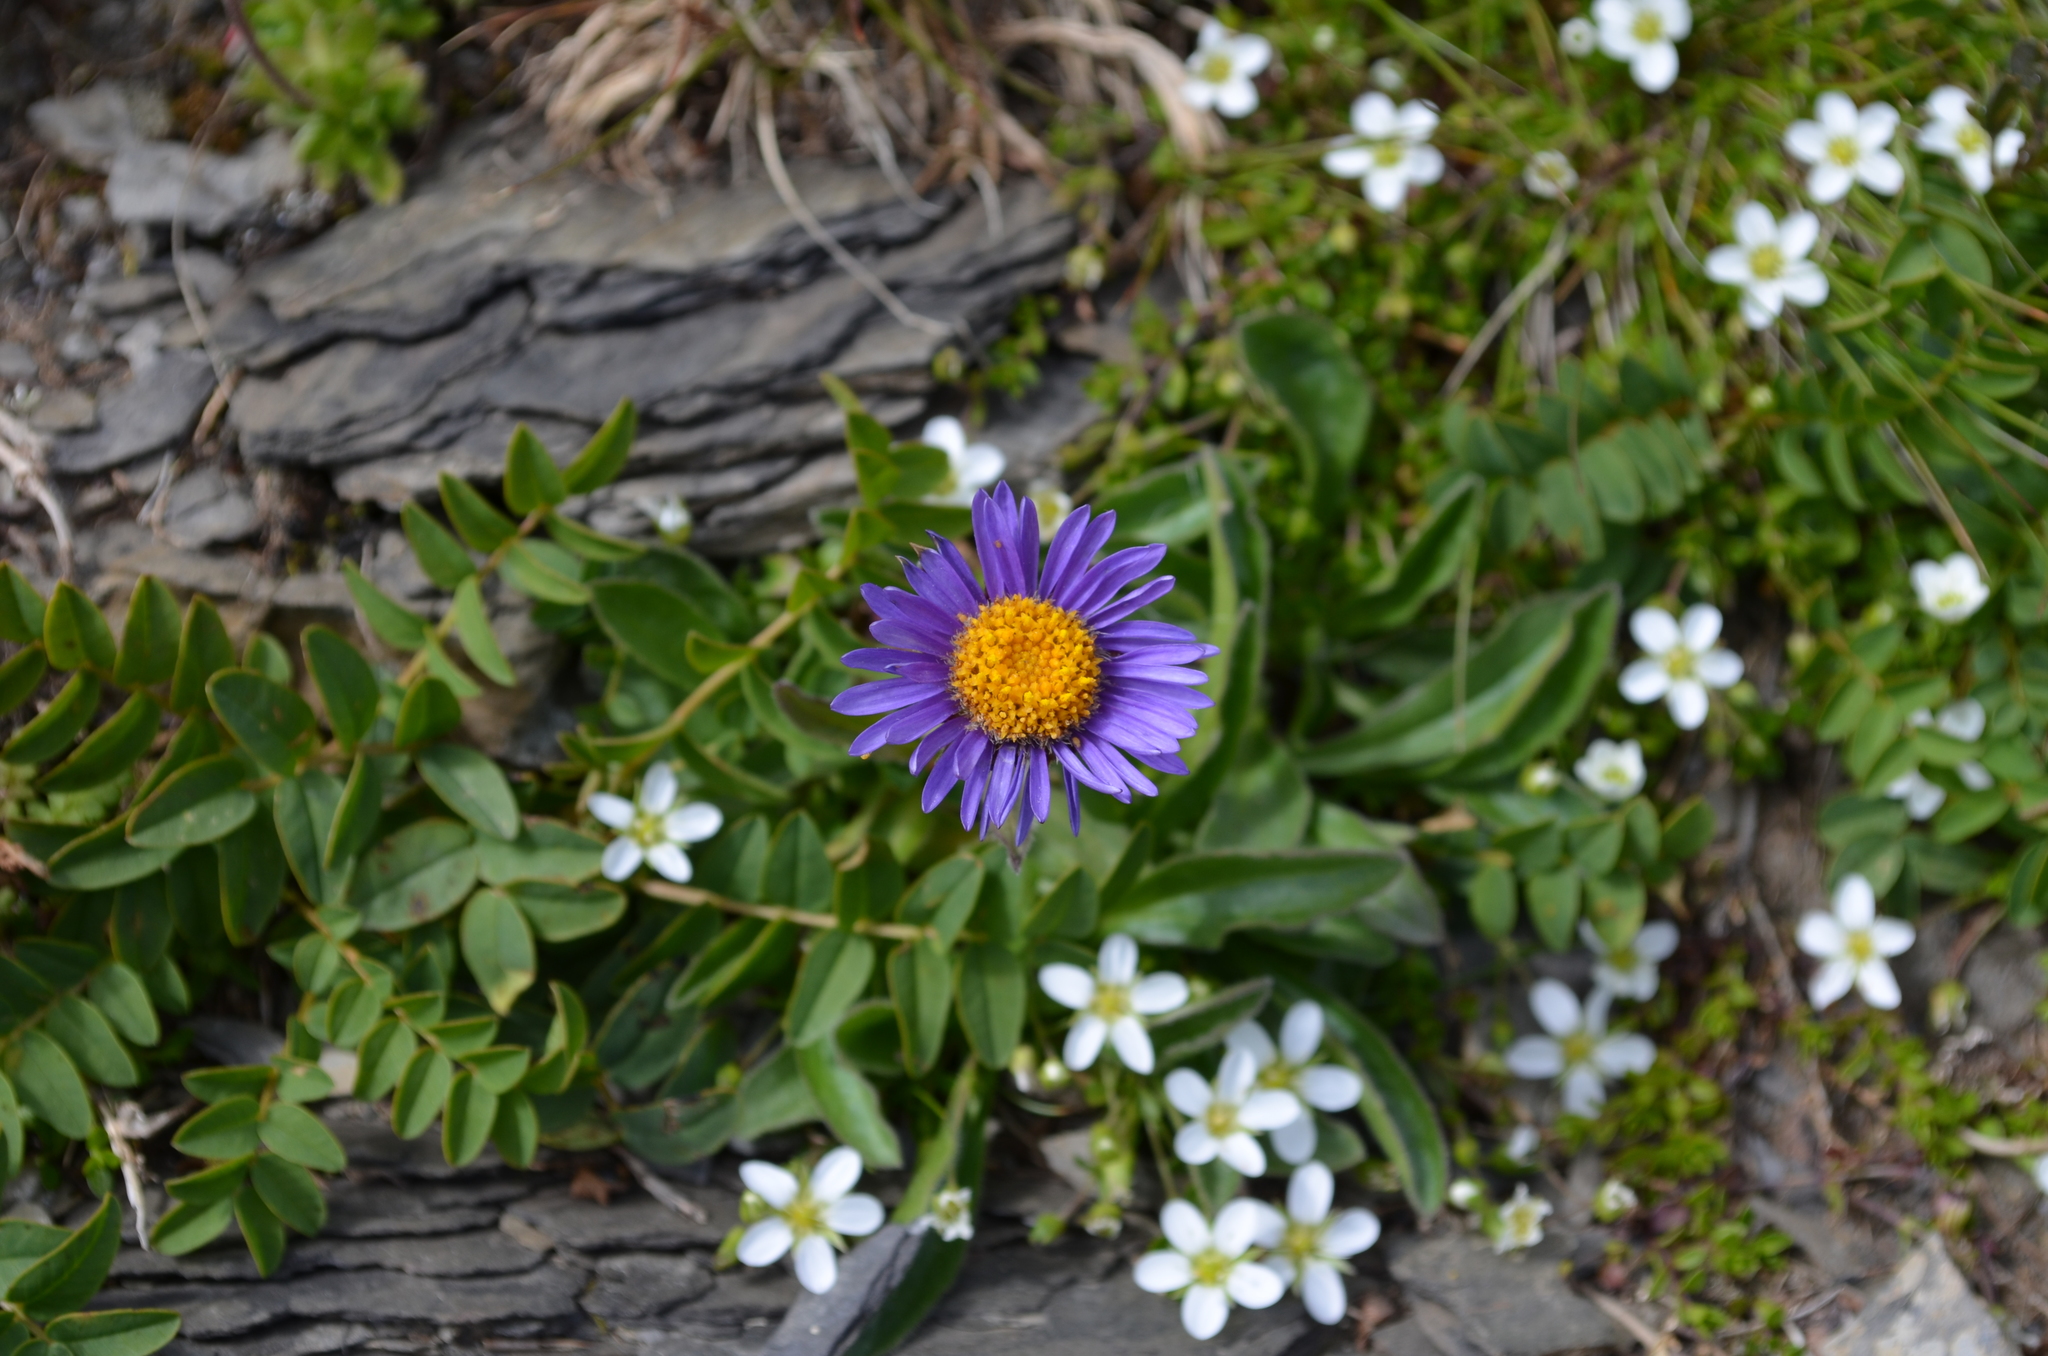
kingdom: Plantae
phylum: Tracheophyta
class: Magnoliopsida
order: Asterales
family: Asteraceae
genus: Aster
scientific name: Aster alpinus
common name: Alpine aster
